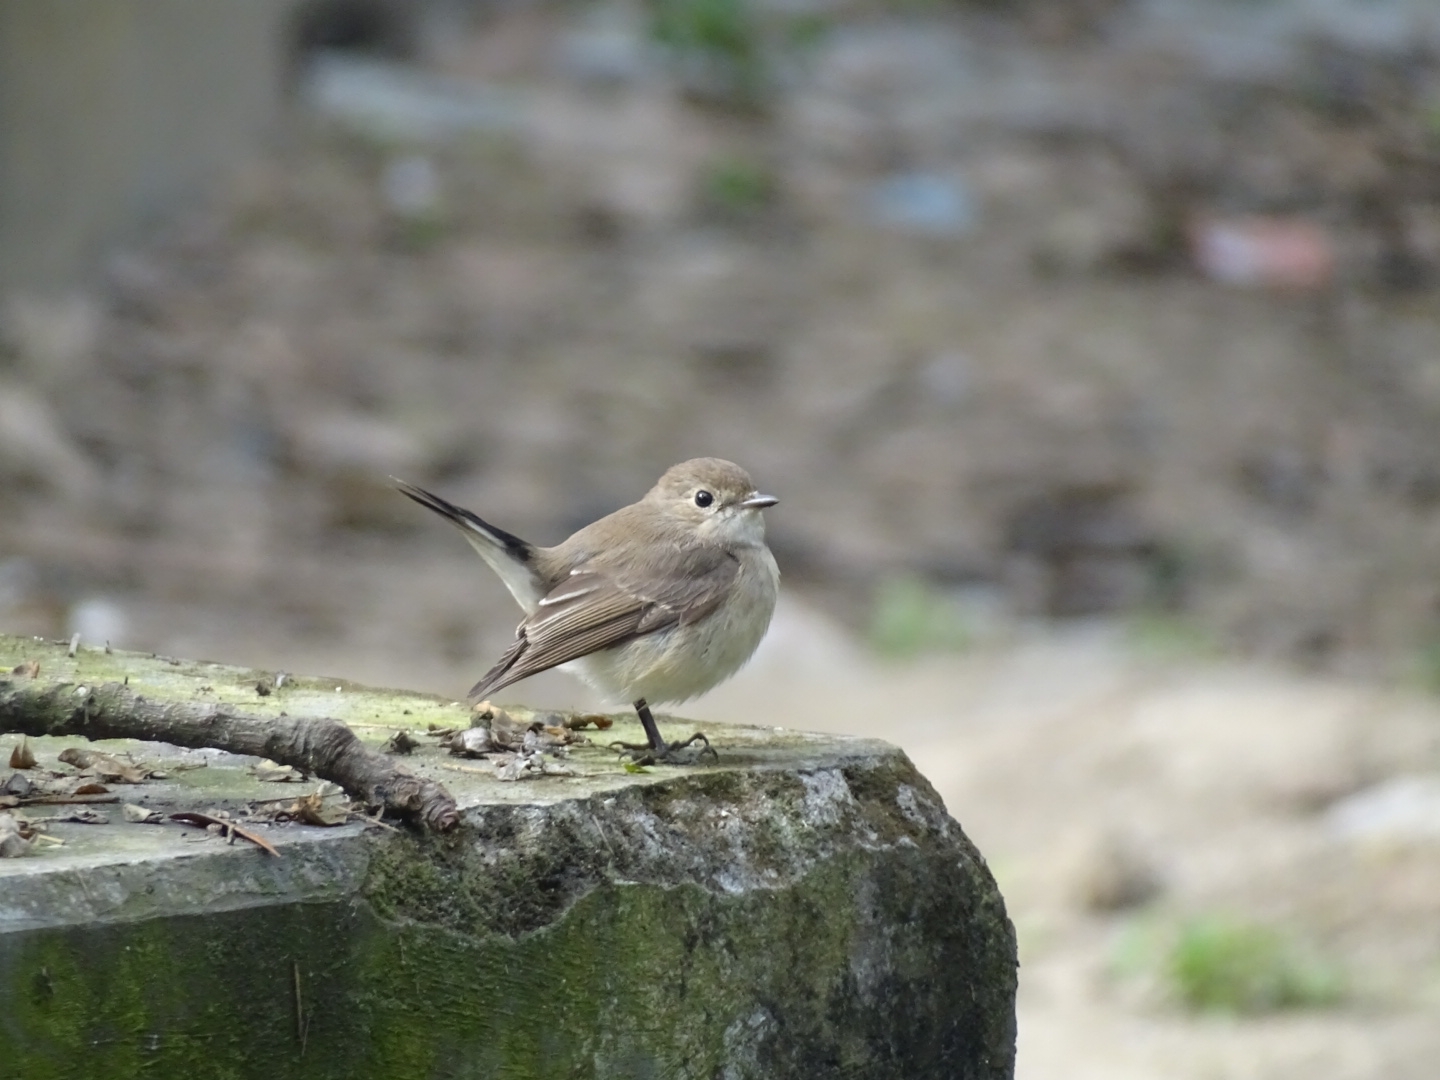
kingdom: Animalia
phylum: Chordata
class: Aves
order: Passeriformes
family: Muscicapidae
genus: Ficedula
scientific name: Ficedula albicilla
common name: Taiga flycatcher
